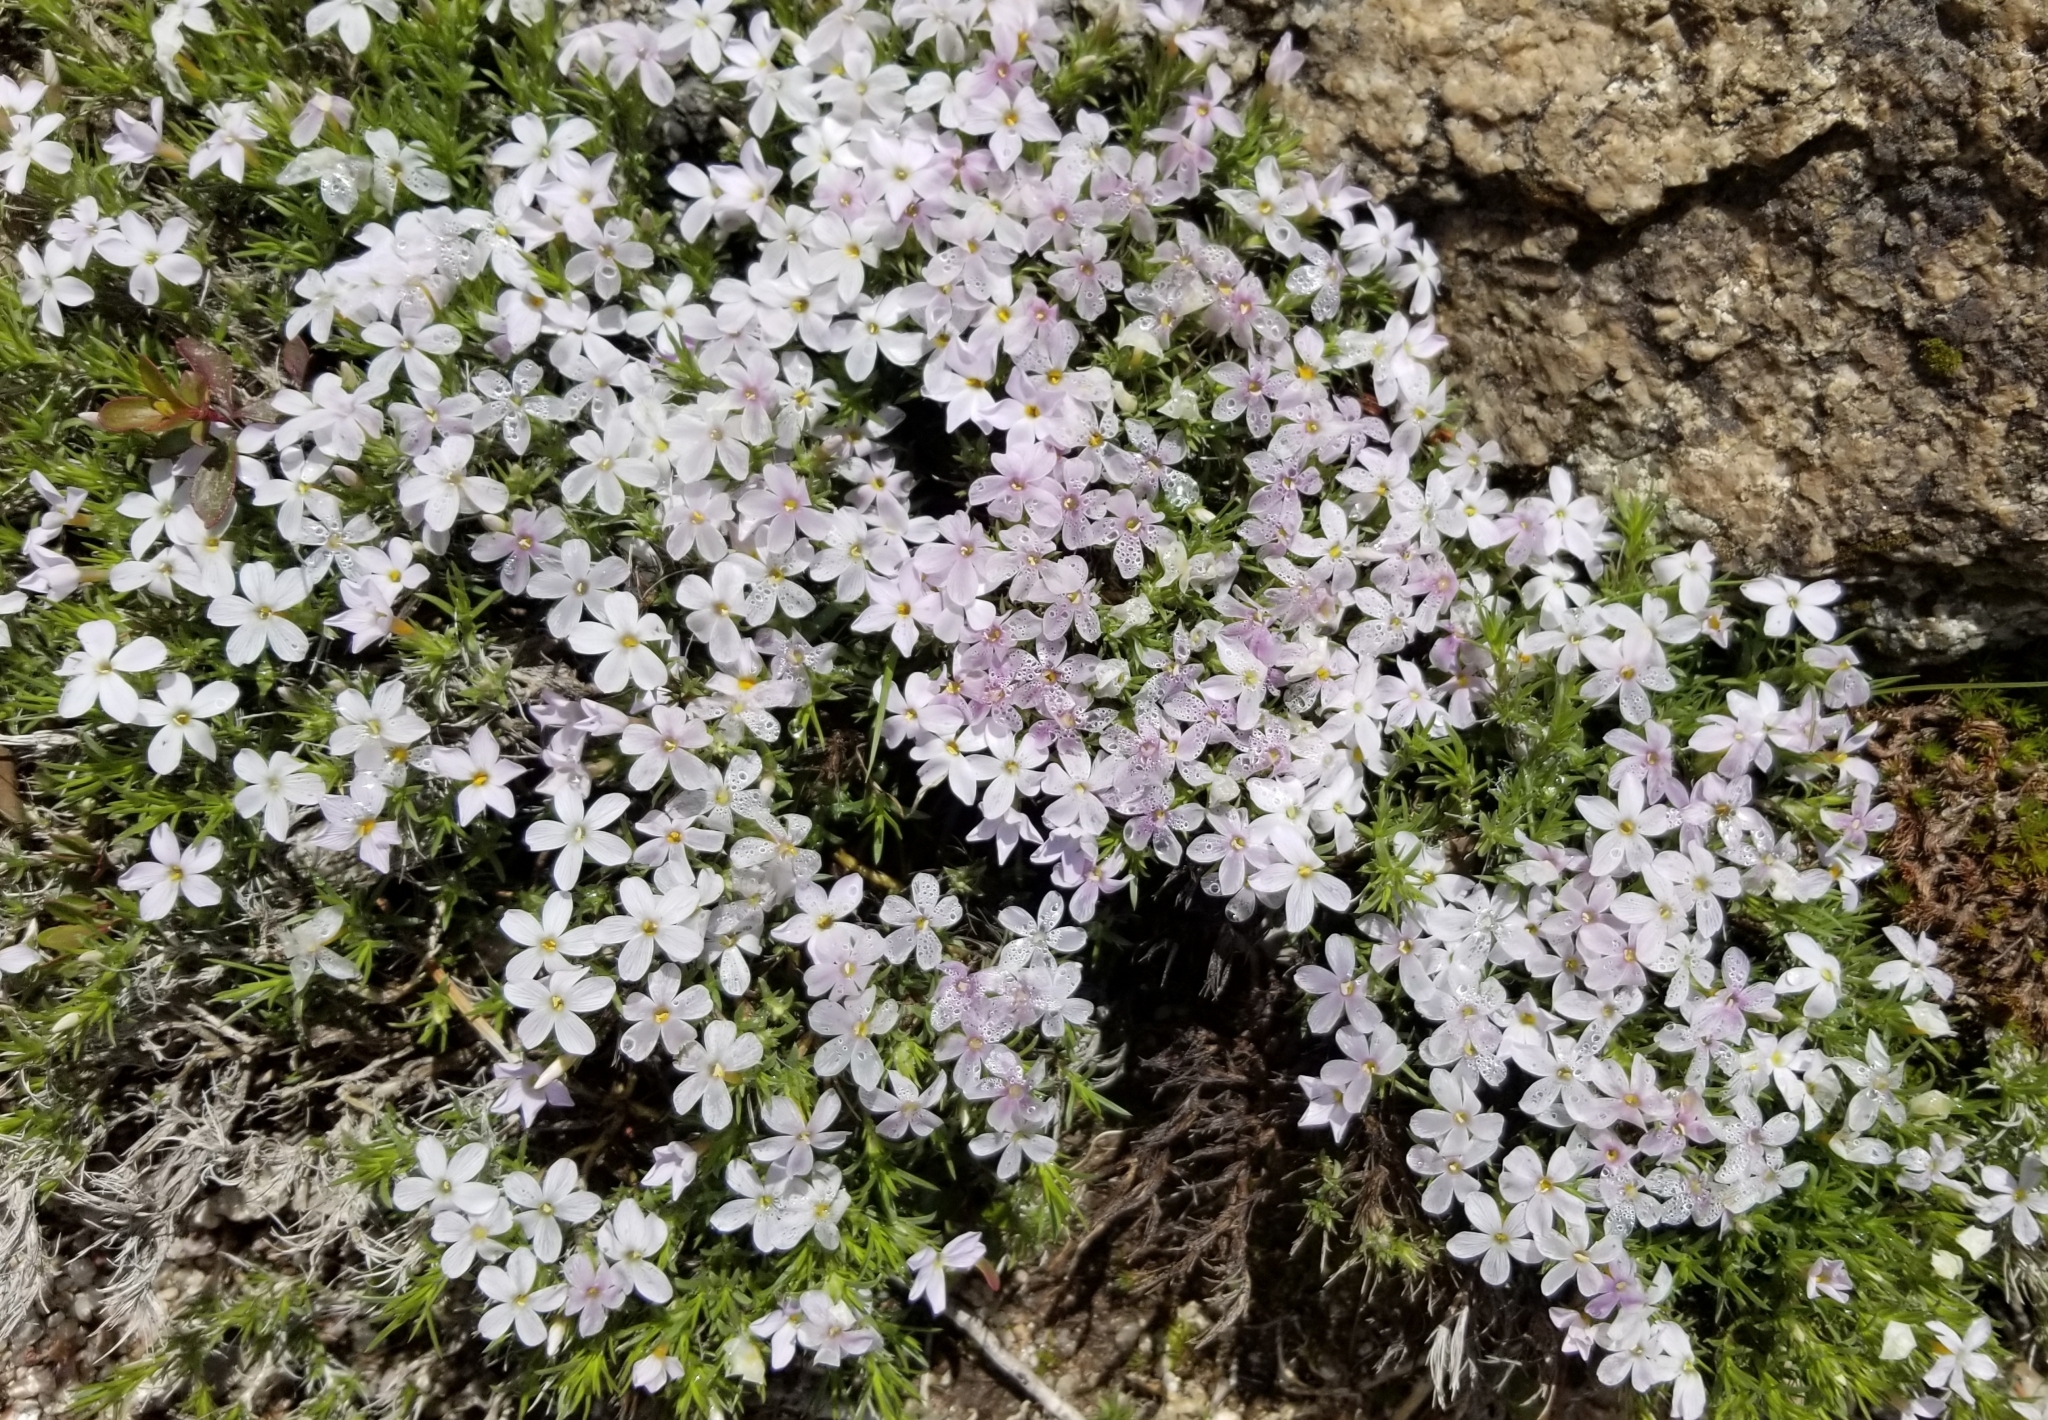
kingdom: Plantae
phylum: Tracheophyta
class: Magnoliopsida
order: Ericales
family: Polemoniaceae
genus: Phlox
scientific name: Phlox diffusa
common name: Mat phlox
